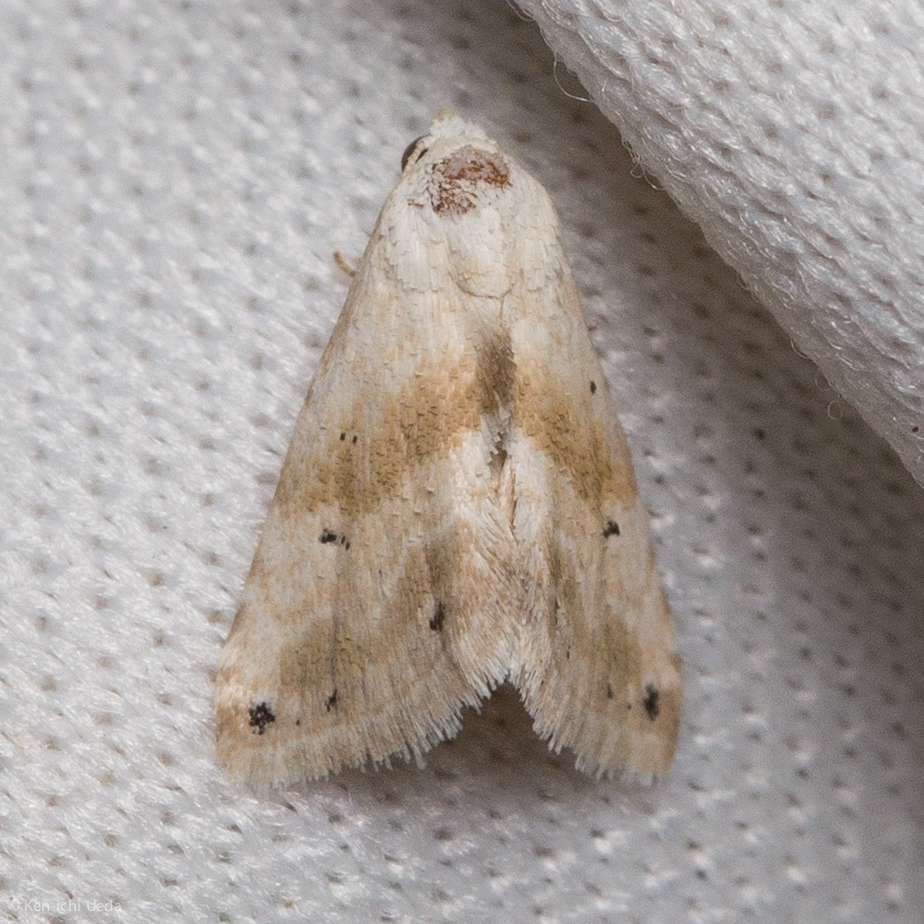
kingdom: Animalia
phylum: Arthropoda
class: Insecta
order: Lepidoptera
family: Noctuidae
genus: Eublemma
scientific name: Eublemma minima
